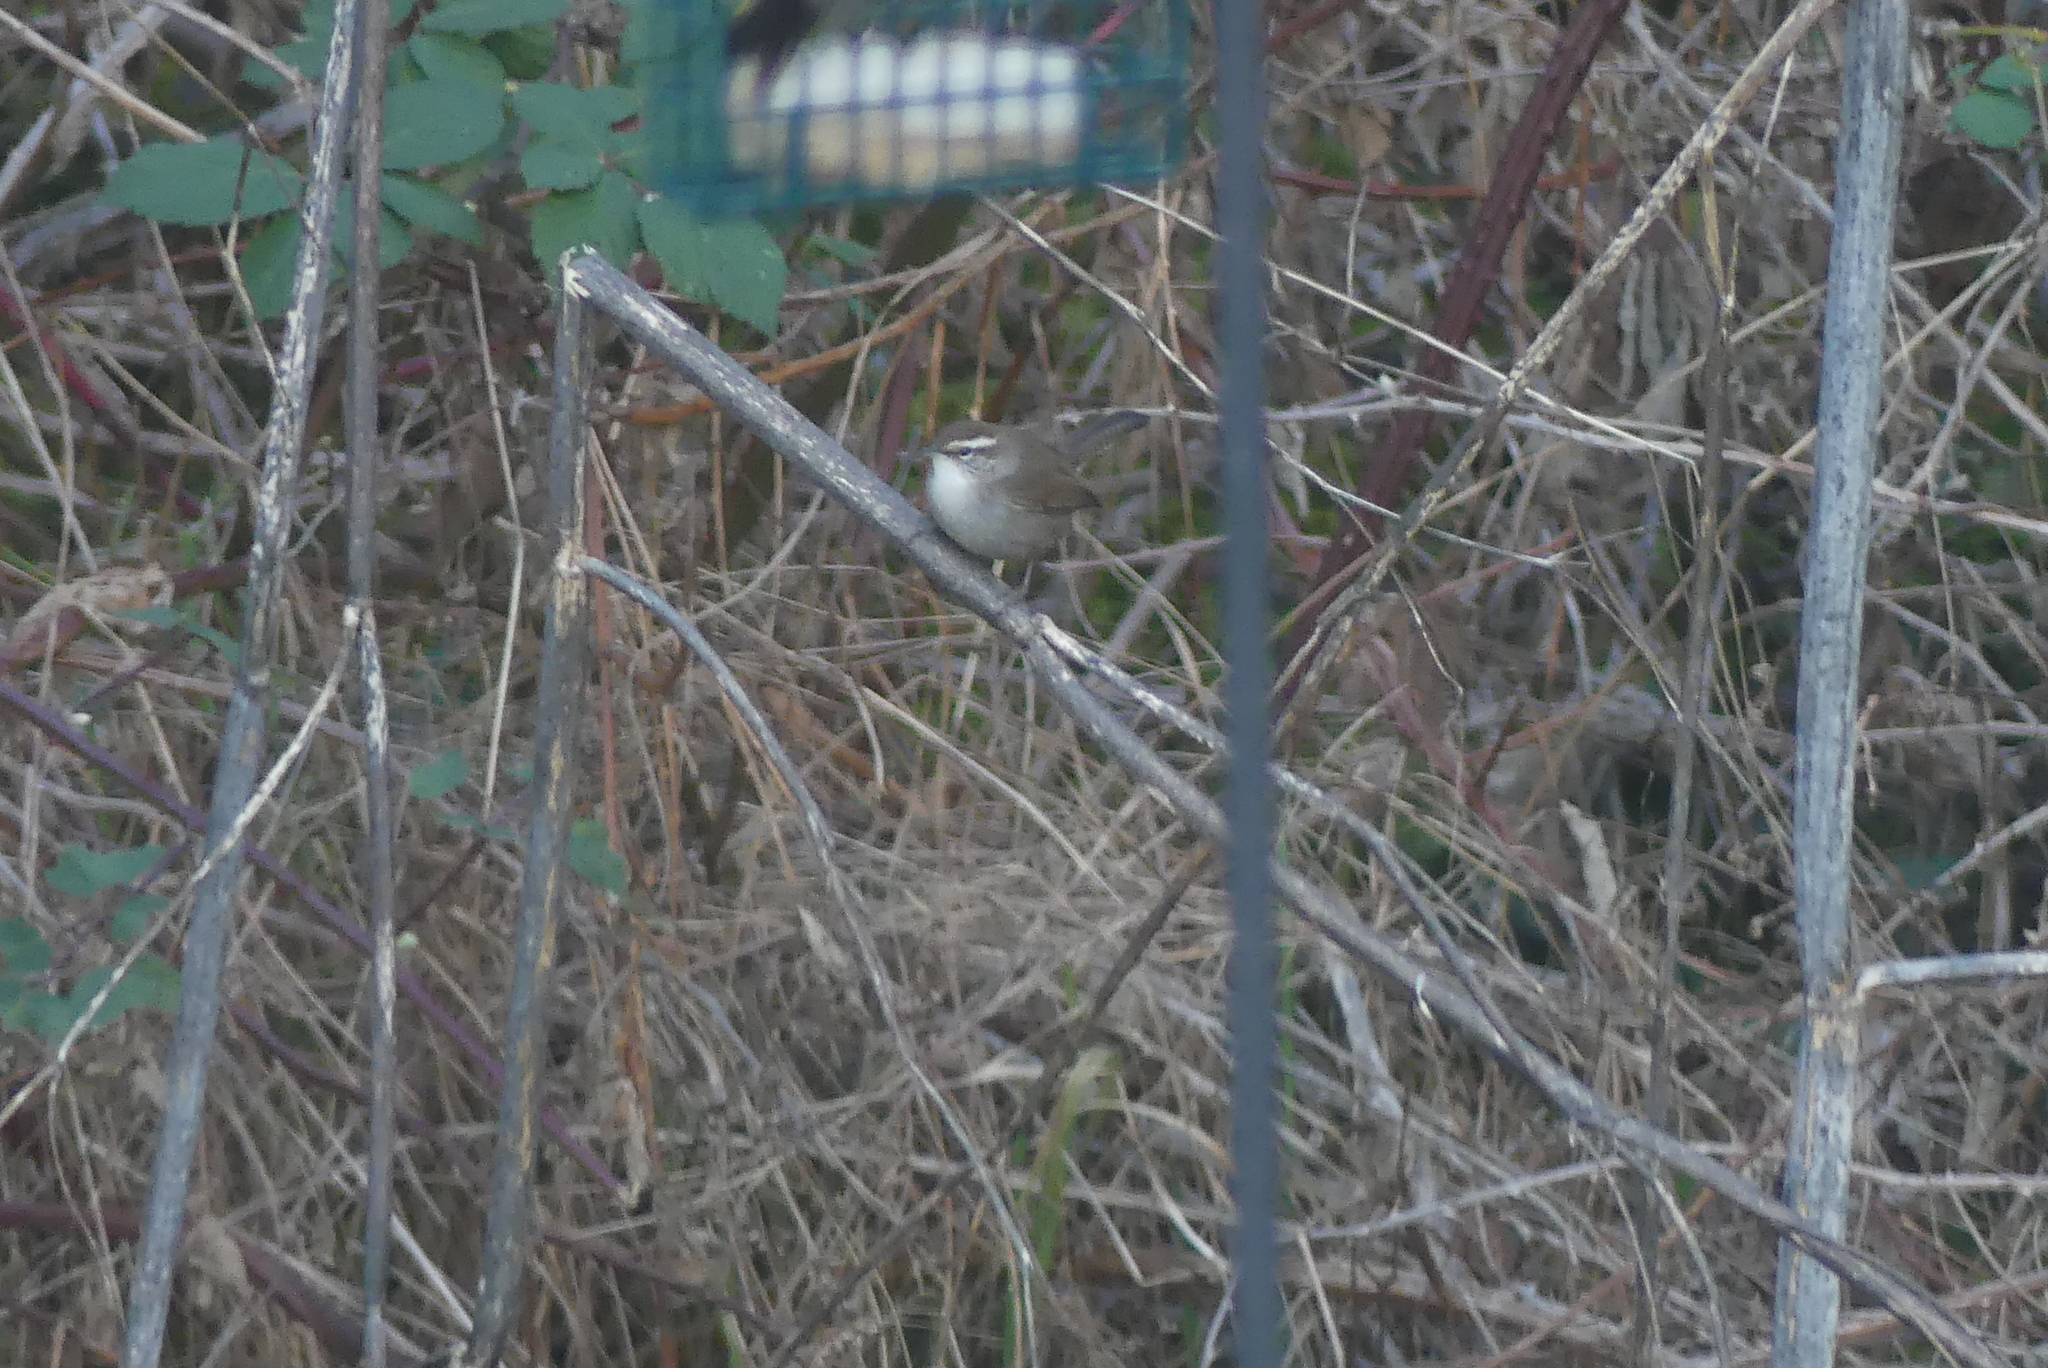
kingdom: Animalia
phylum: Chordata
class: Aves
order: Passeriformes
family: Troglodytidae
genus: Thryomanes
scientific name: Thryomanes bewickii
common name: Bewick's wren
